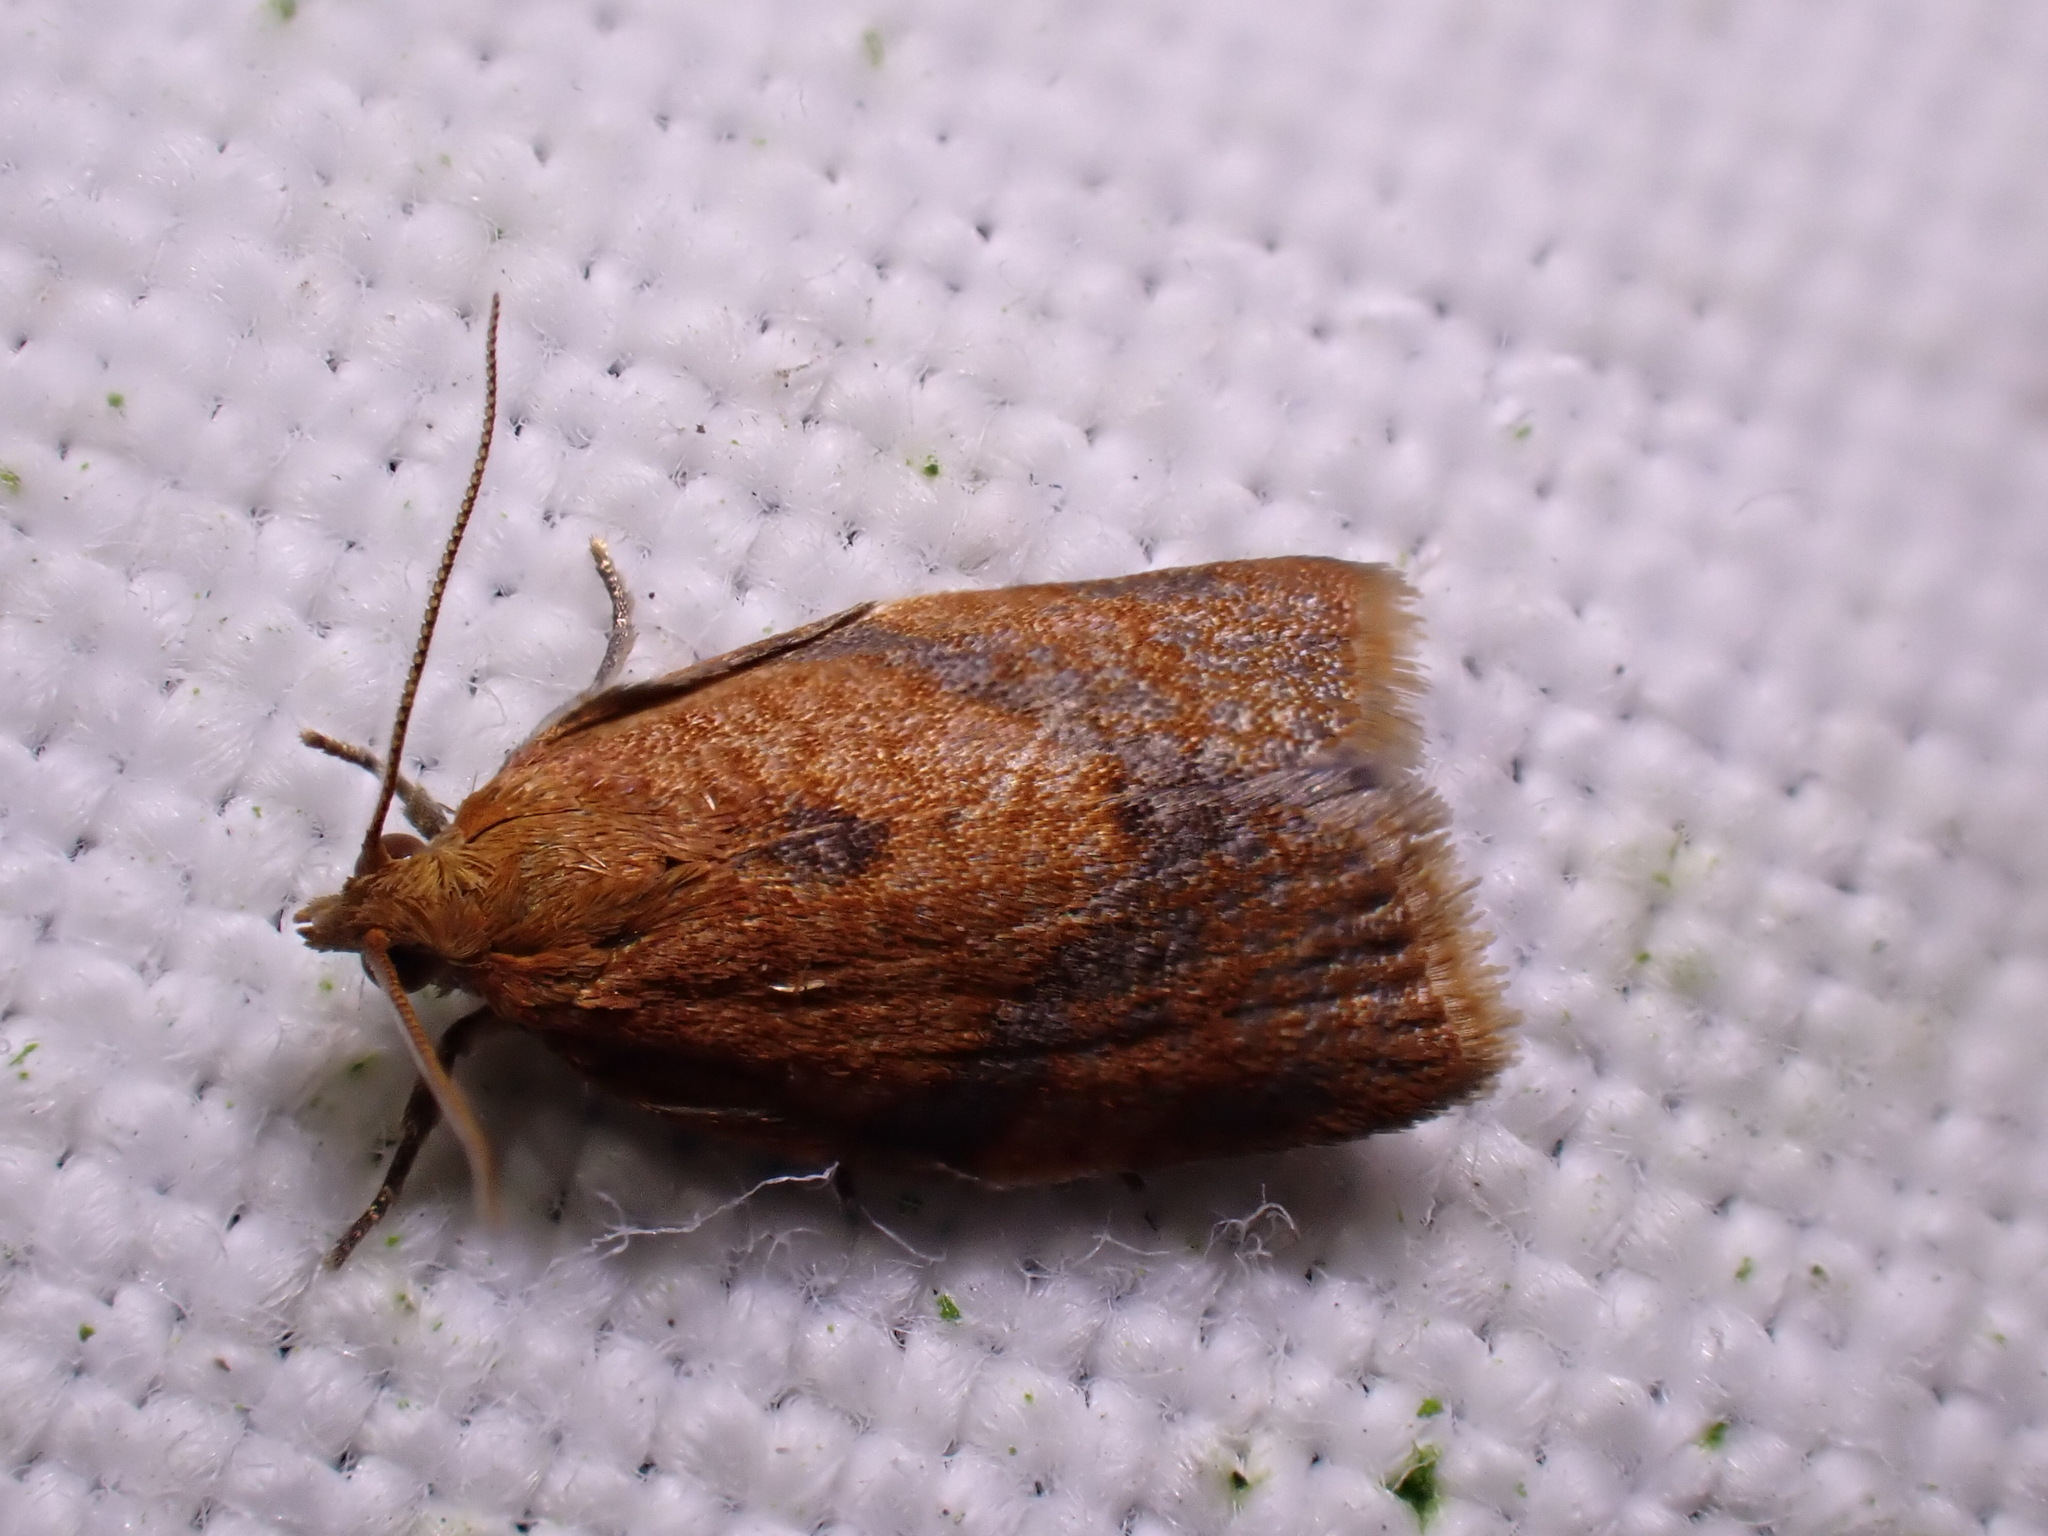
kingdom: Animalia
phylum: Arthropoda
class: Insecta
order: Lepidoptera
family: Tortricidae
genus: Clepsis
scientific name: Clepsis consimilana
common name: Privet tortrix
